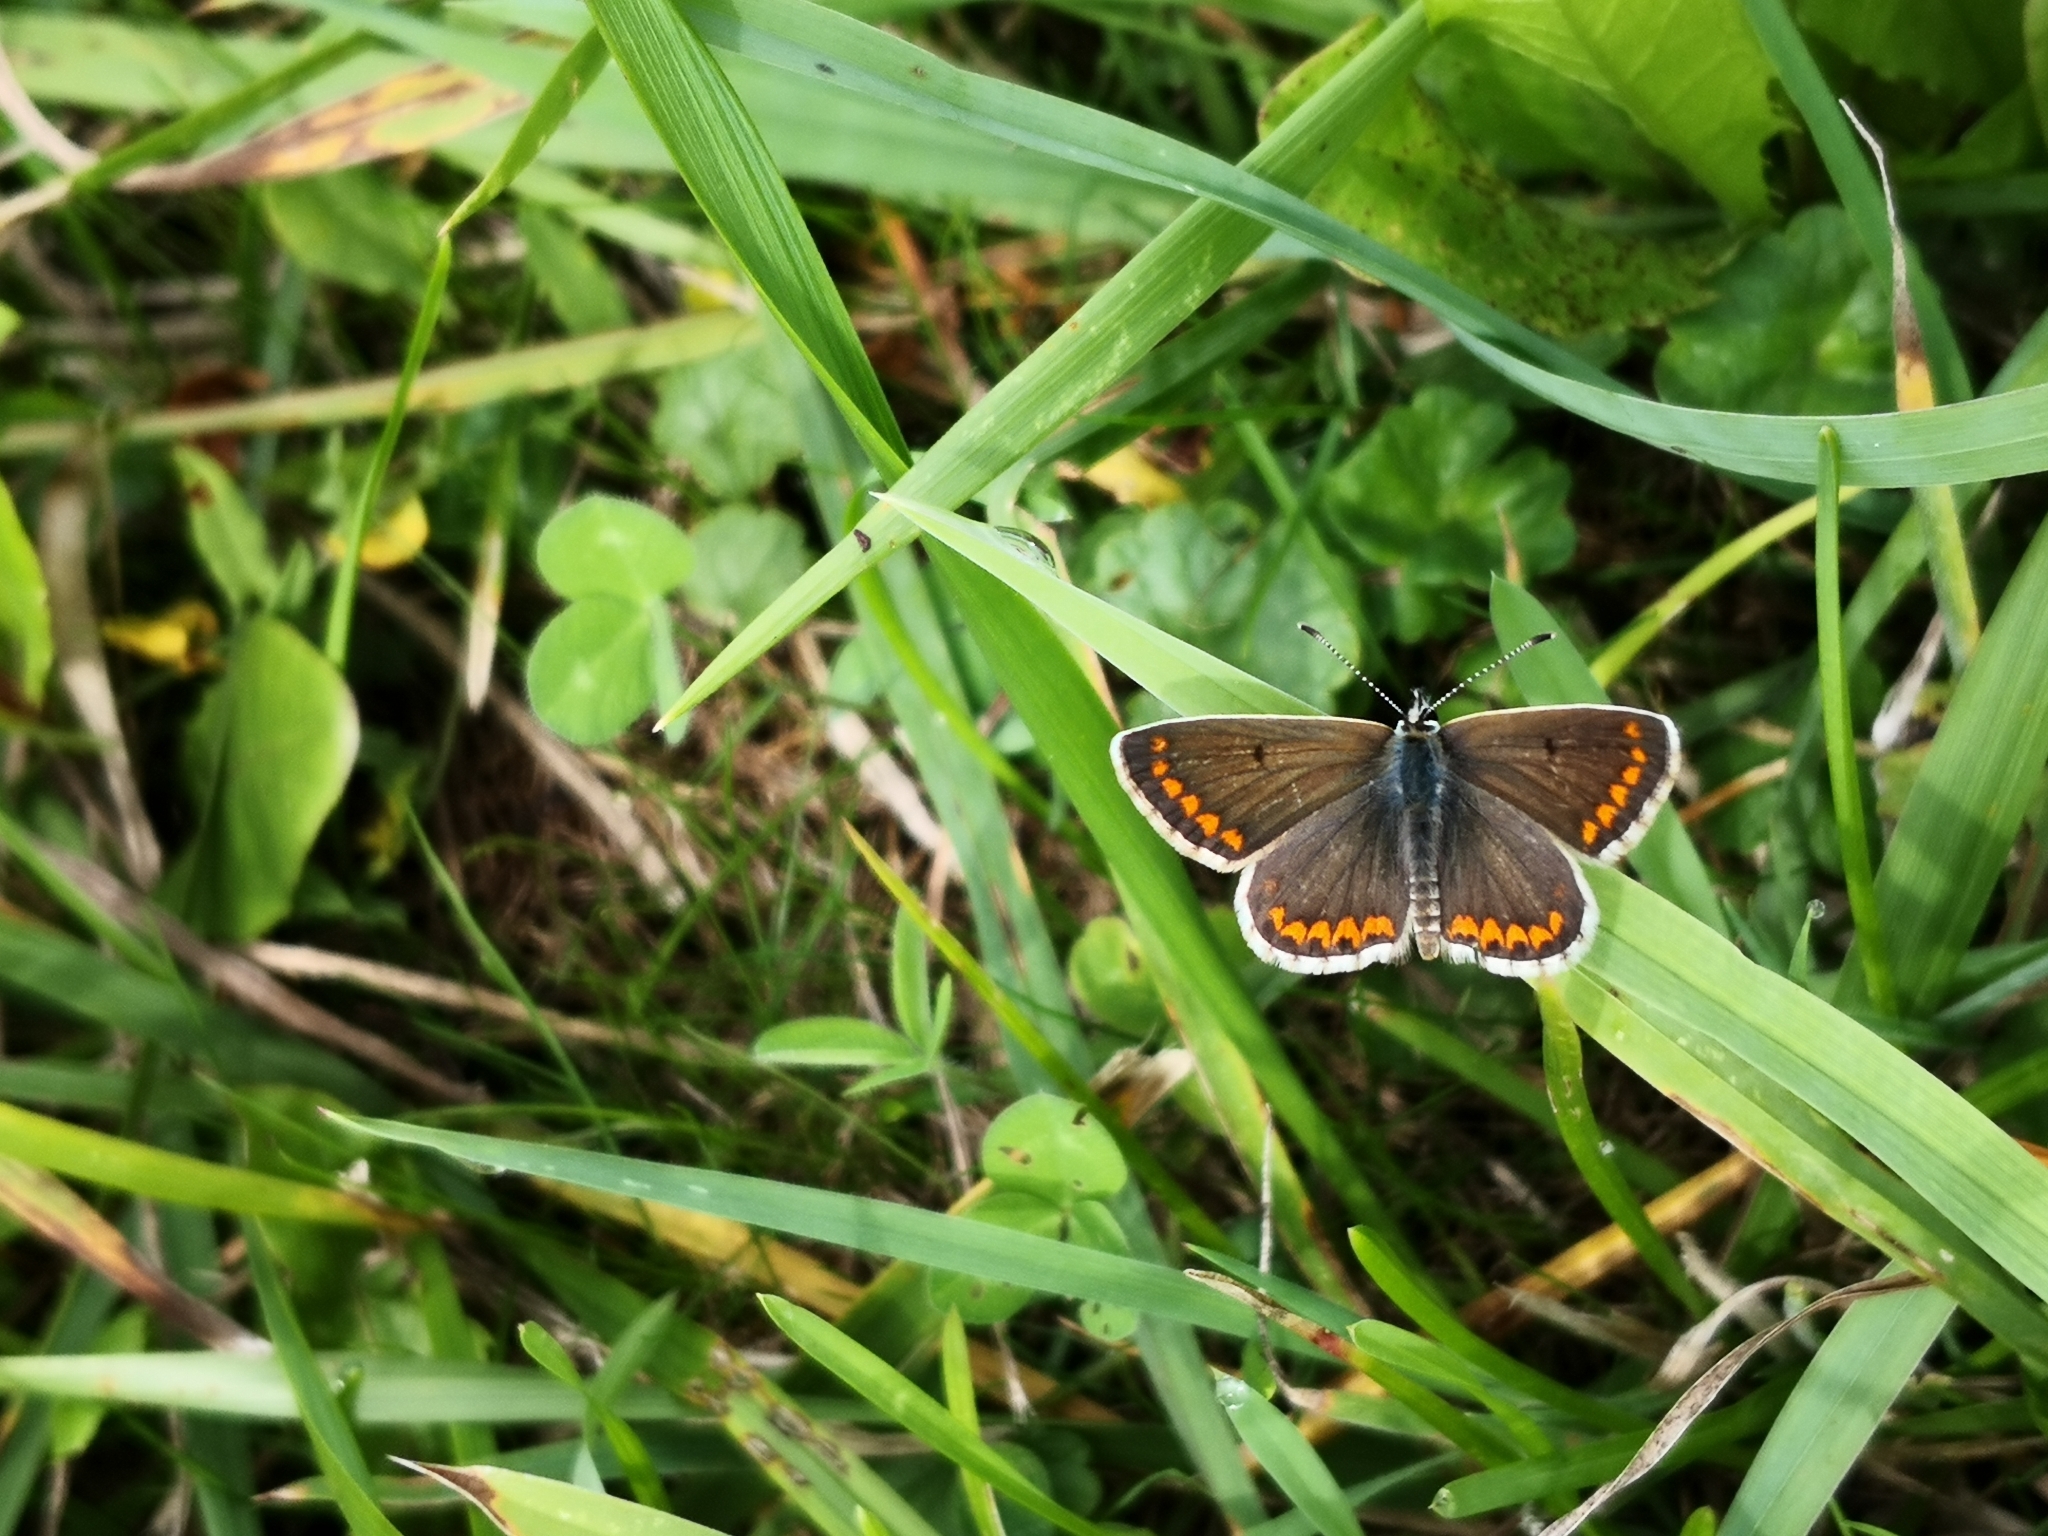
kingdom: Animalia
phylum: Arthropoda
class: Insecta
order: Lepidoptera
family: Lycaenidae
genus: Aricia
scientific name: Aricia agestis
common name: Brown argus
